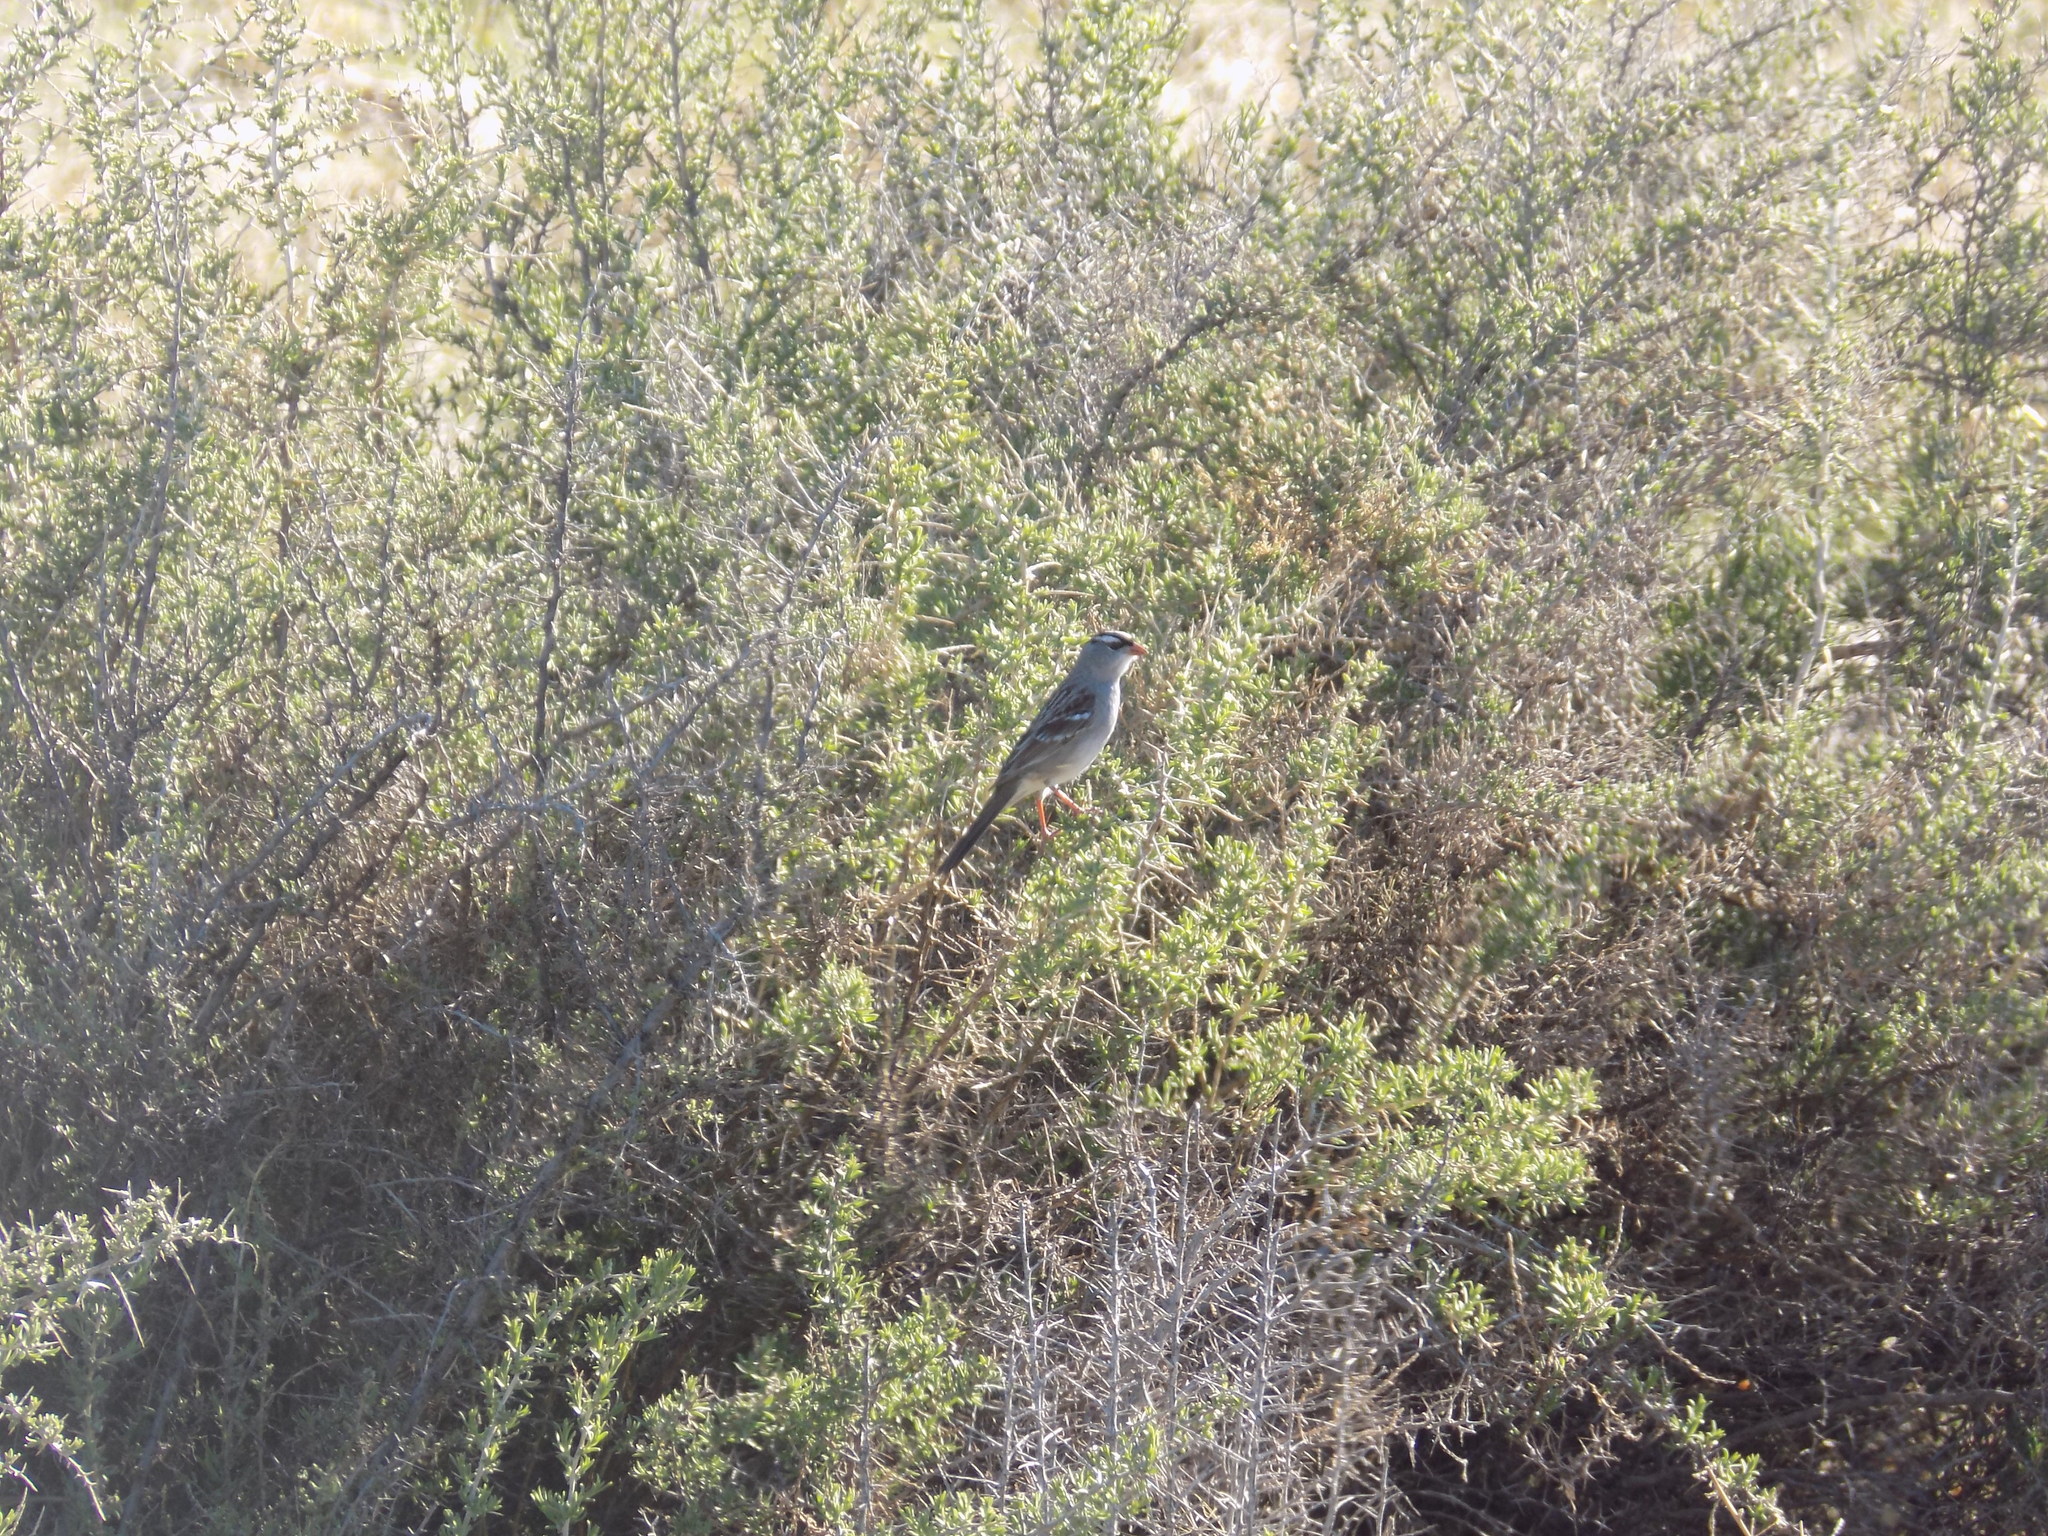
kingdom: Animalia
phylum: Chordata
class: Aves
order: Passeriformes
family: Passerellidae
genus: Zonotrichia
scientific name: Zonotrichia leucophrys
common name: White-crowned sparrow
